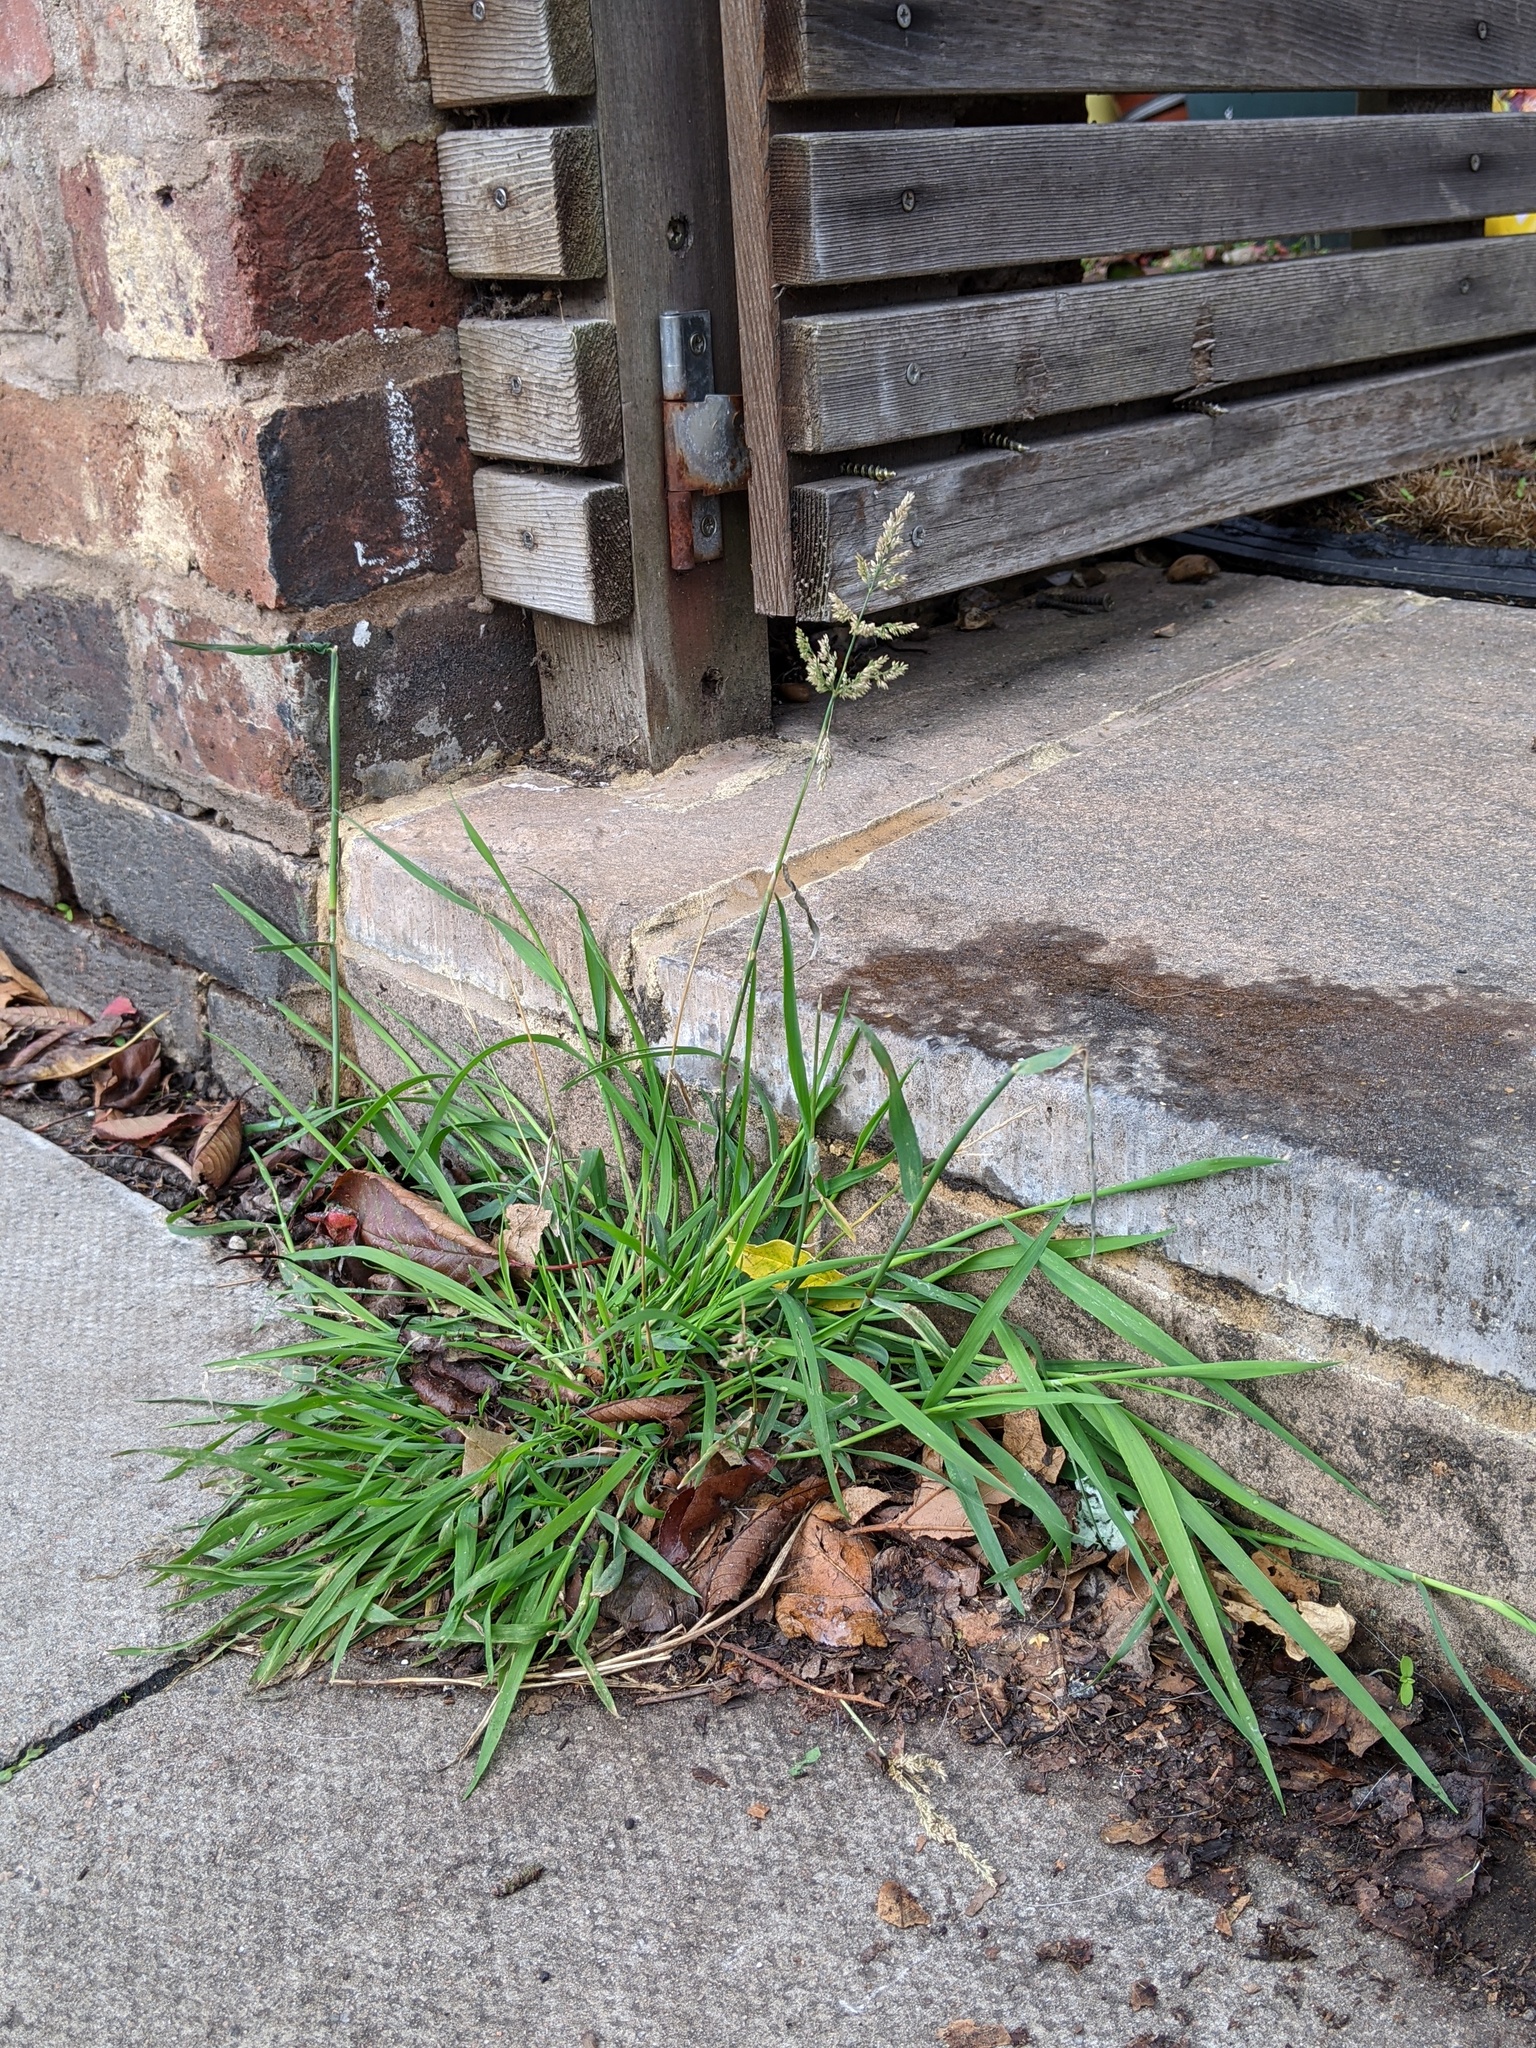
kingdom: Plantae
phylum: Tracheophyta
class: Liliopsida
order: Poales
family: Poaceae
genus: Polypogon
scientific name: Polypogon viridis
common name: Water bent
